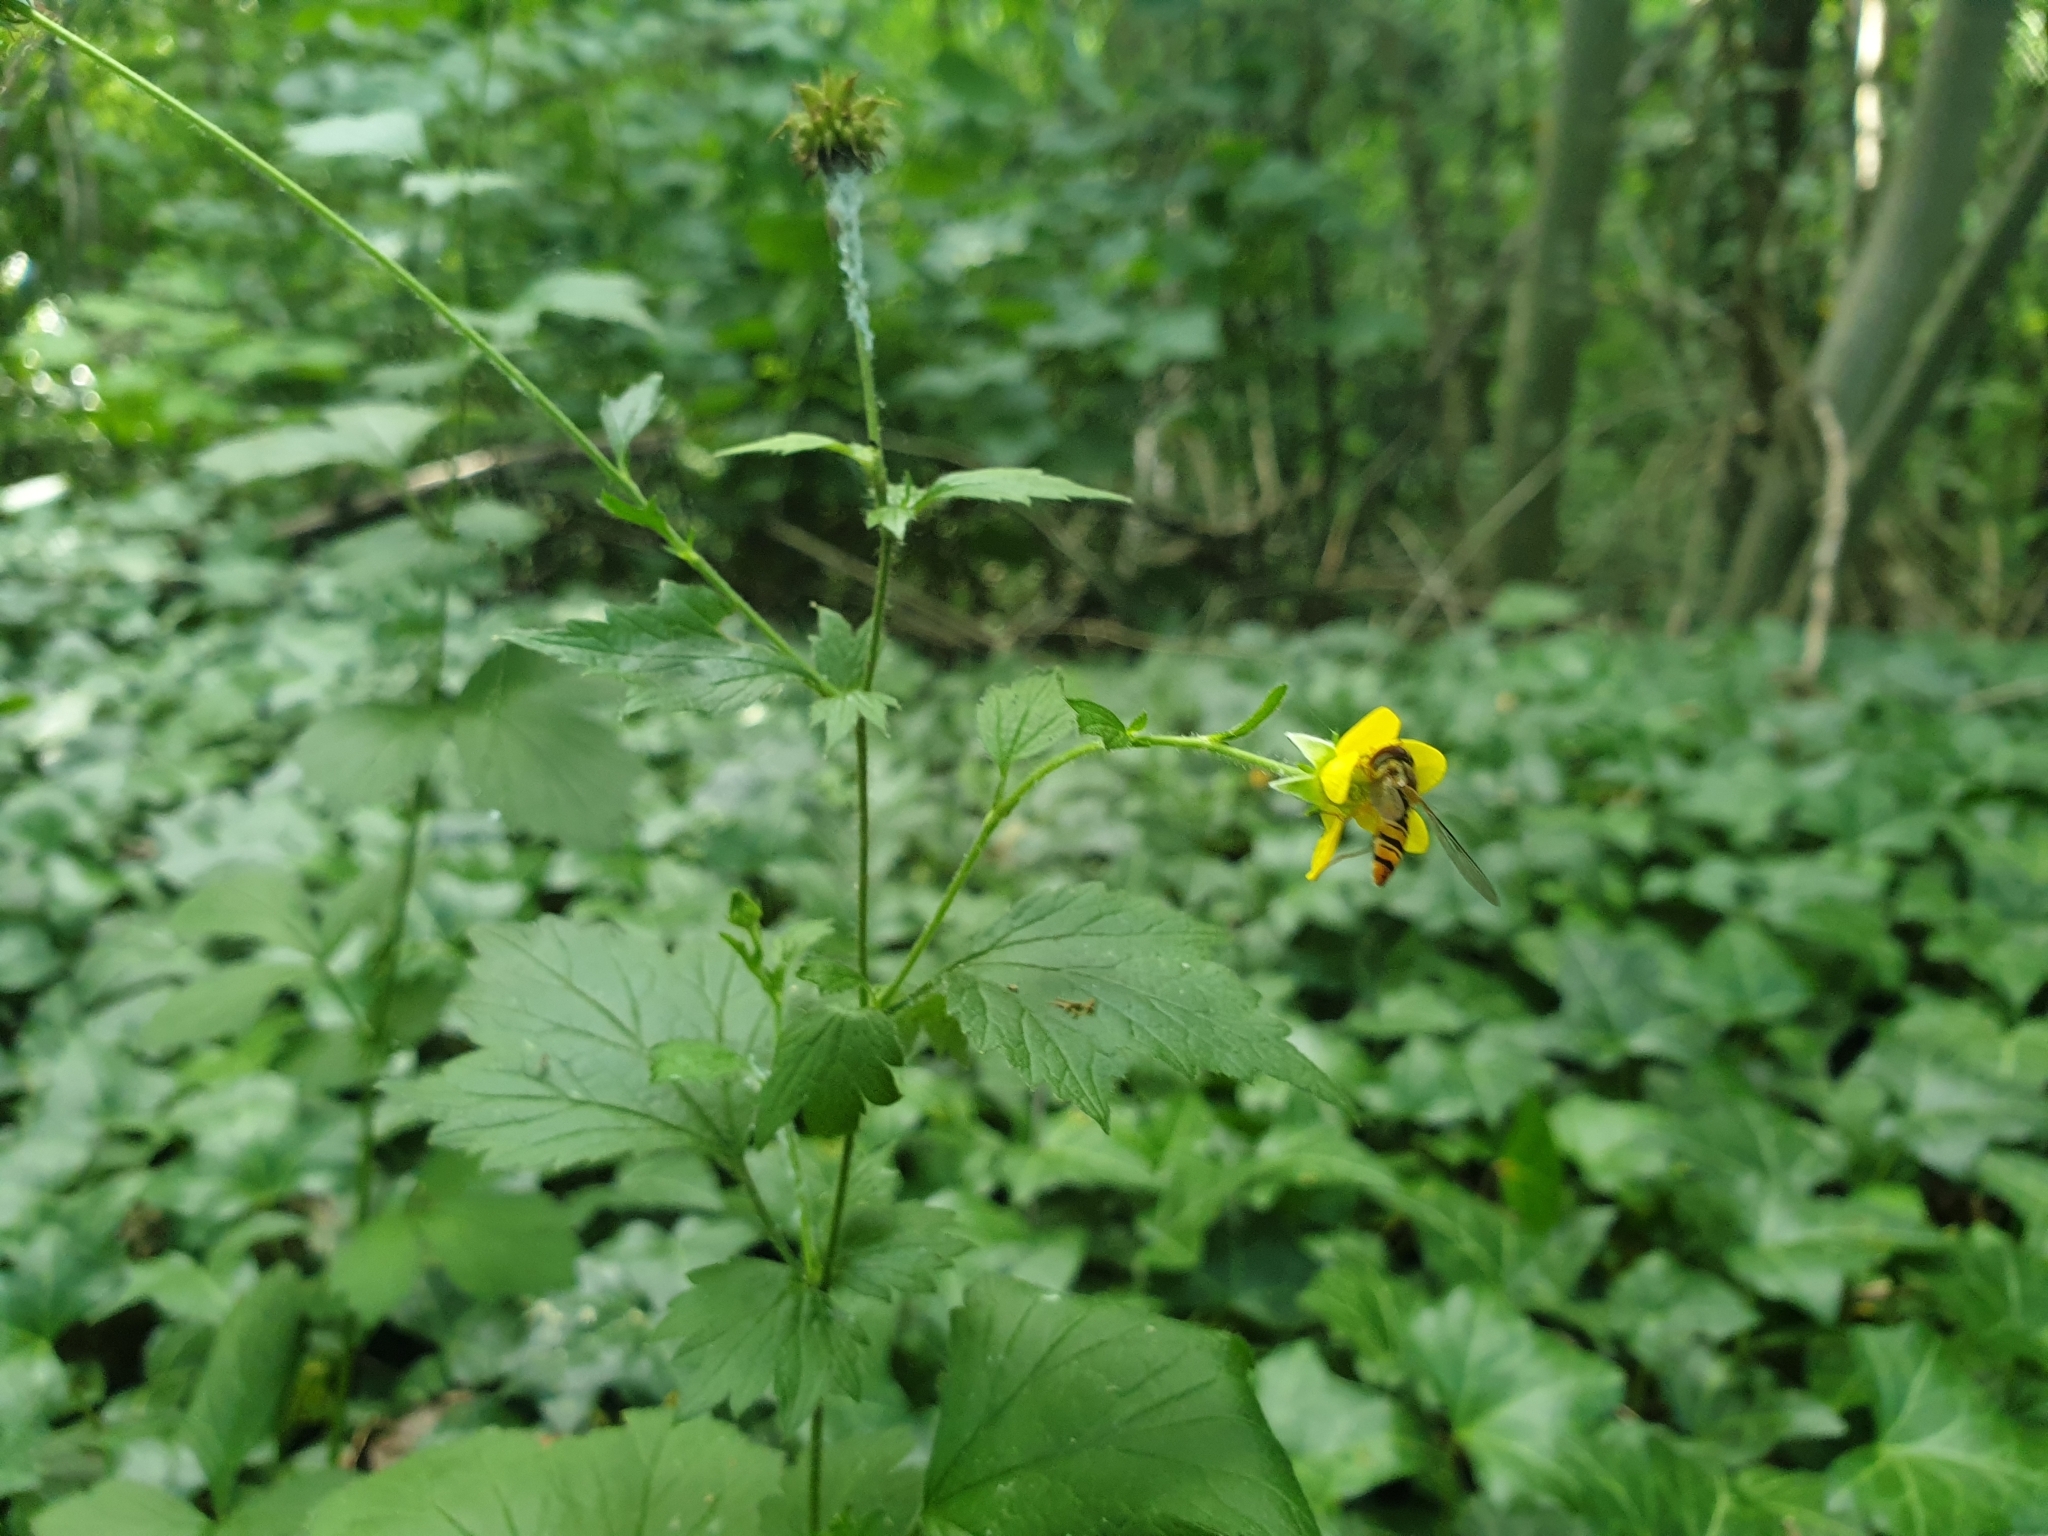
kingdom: Plantae
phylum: Tracheophyta
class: Magnoliopsida
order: Rosales
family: Rosaceae
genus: Geum
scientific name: Geum urbanum
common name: Wood avens
